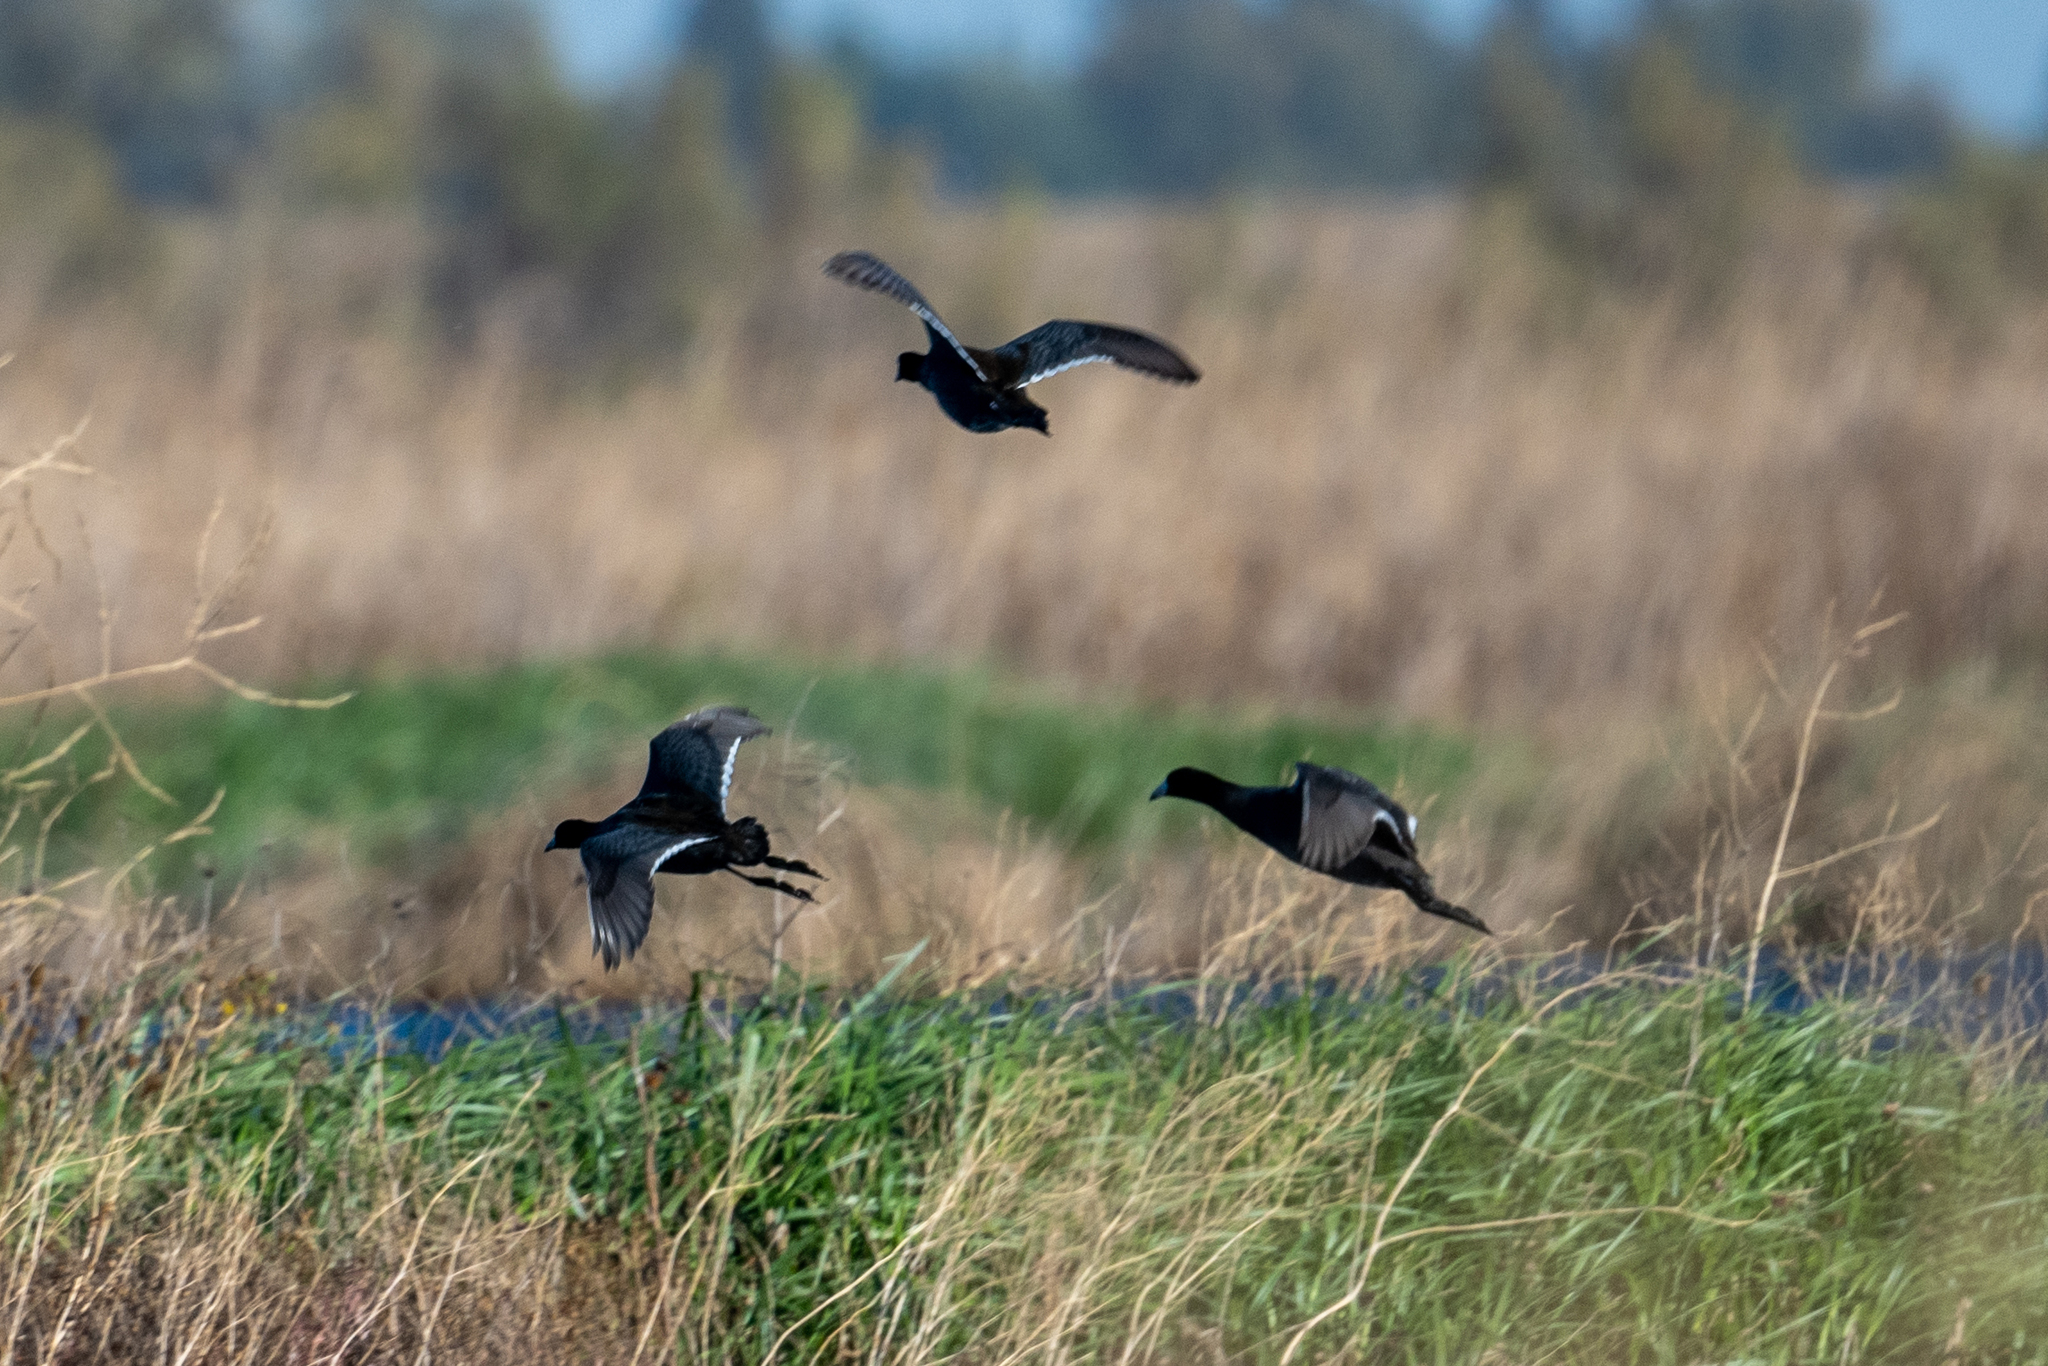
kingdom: Animalia
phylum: Chordata
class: Aves
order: Gruiformes
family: Rallidae
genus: Fulica
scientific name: Fulica americana
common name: American coot
